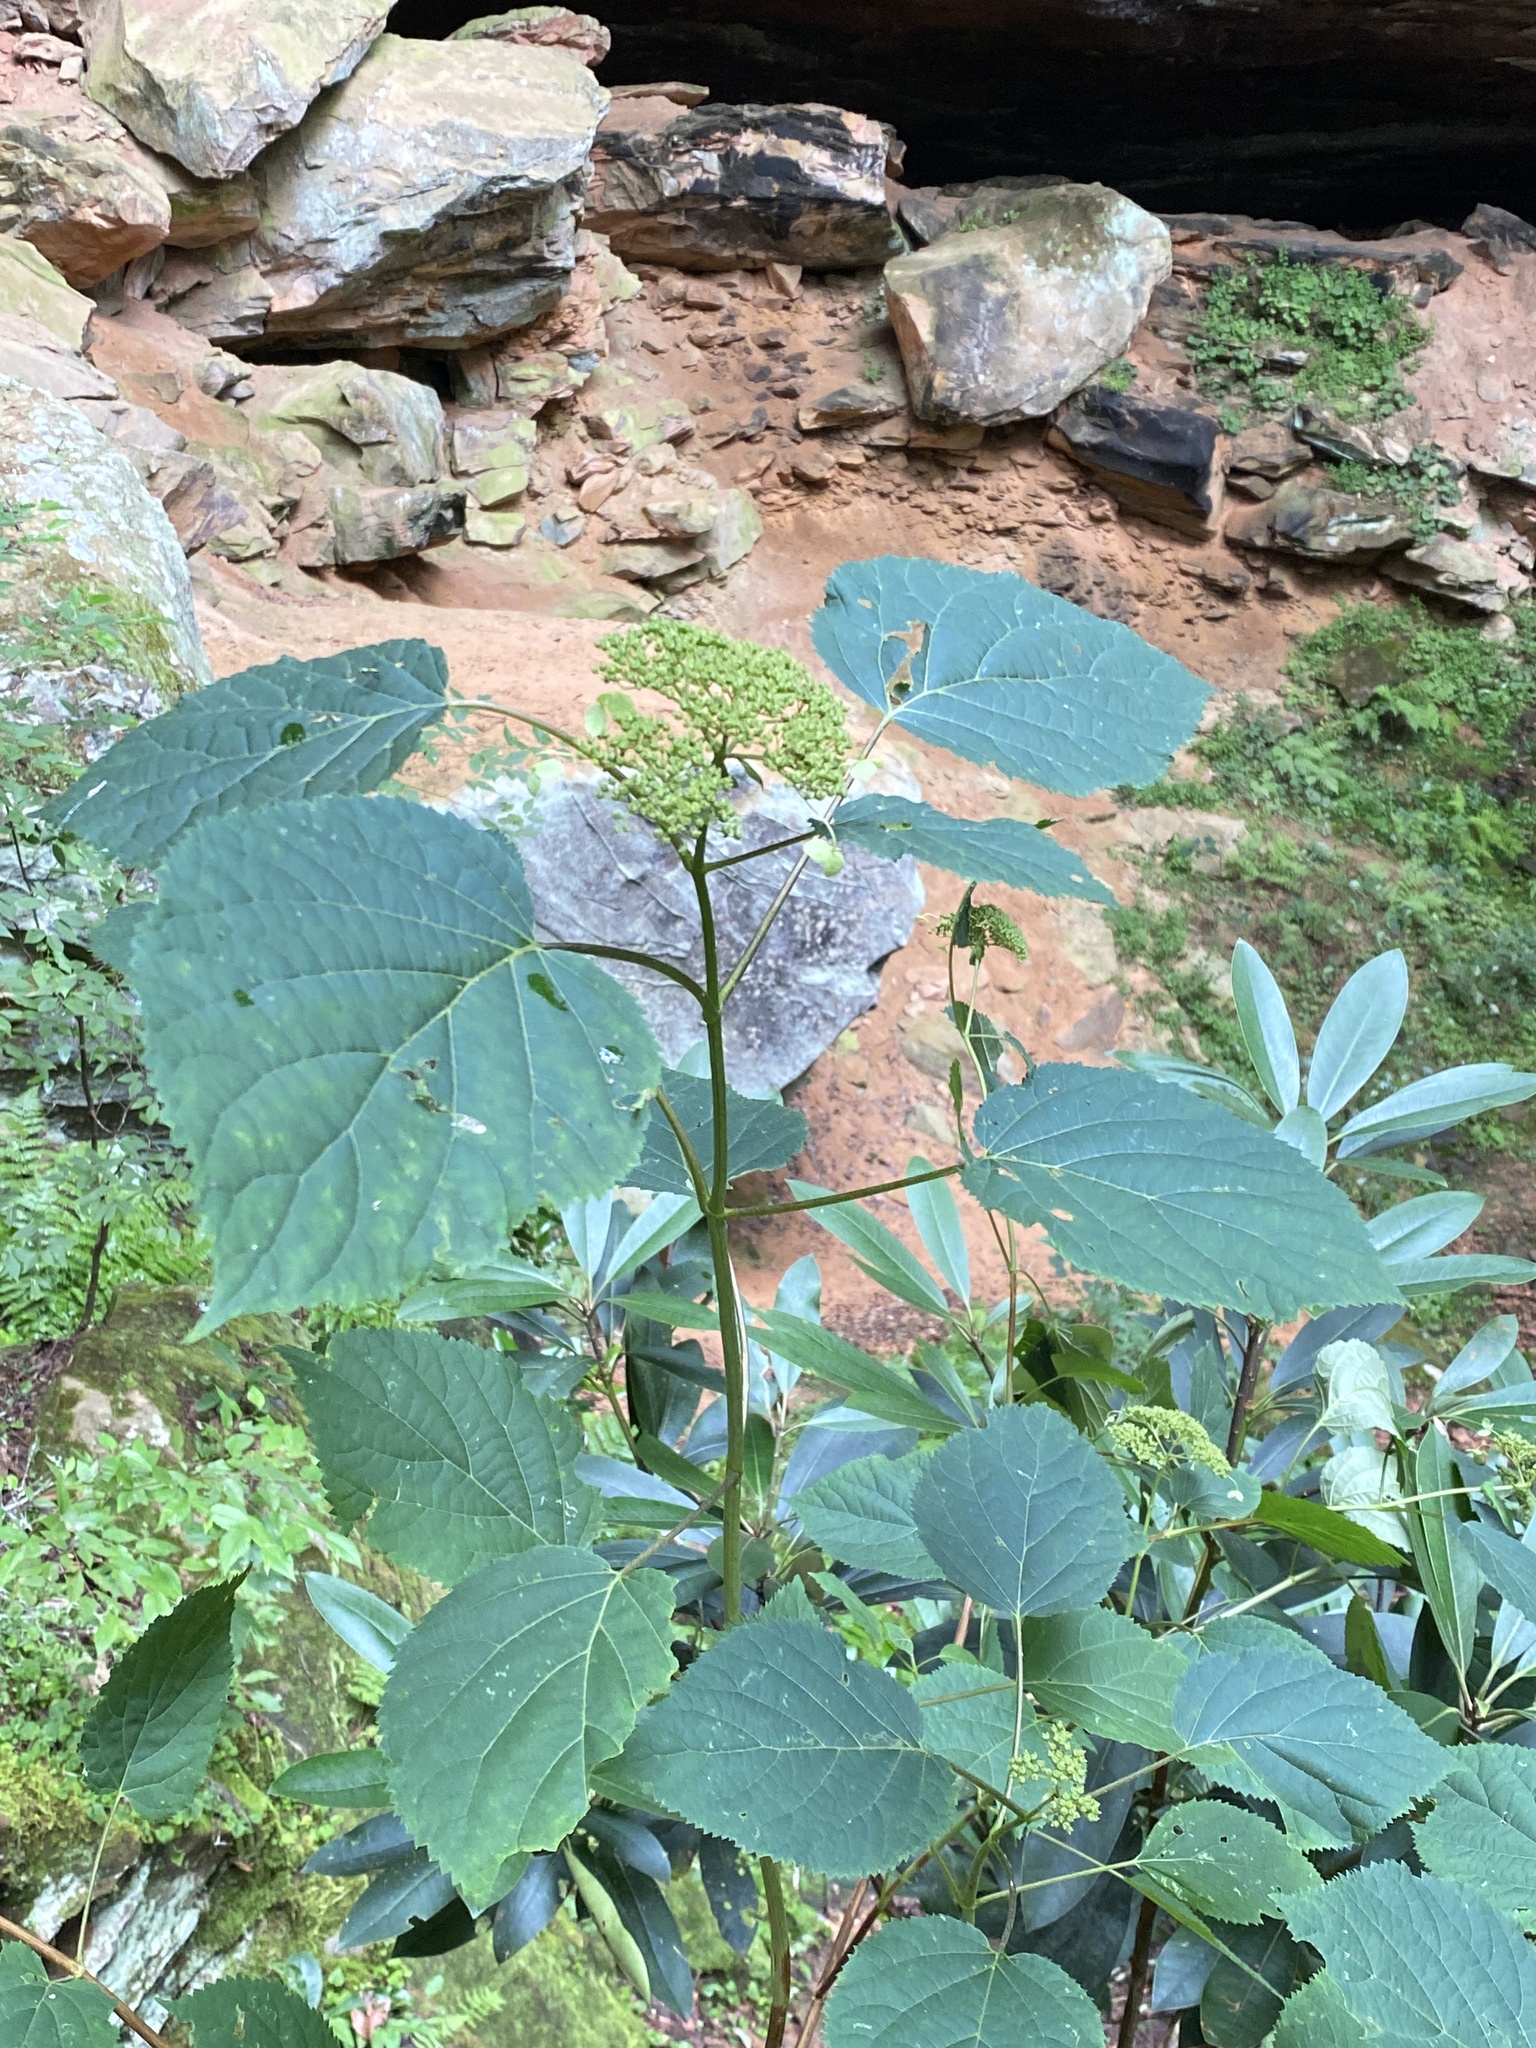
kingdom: Plantae
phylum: Tracheophyta
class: Magnoliopsida
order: Cornales
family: Hydrangeaceae
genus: Hydrangea
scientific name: Hydrangea arborescens
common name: Sevenbark
